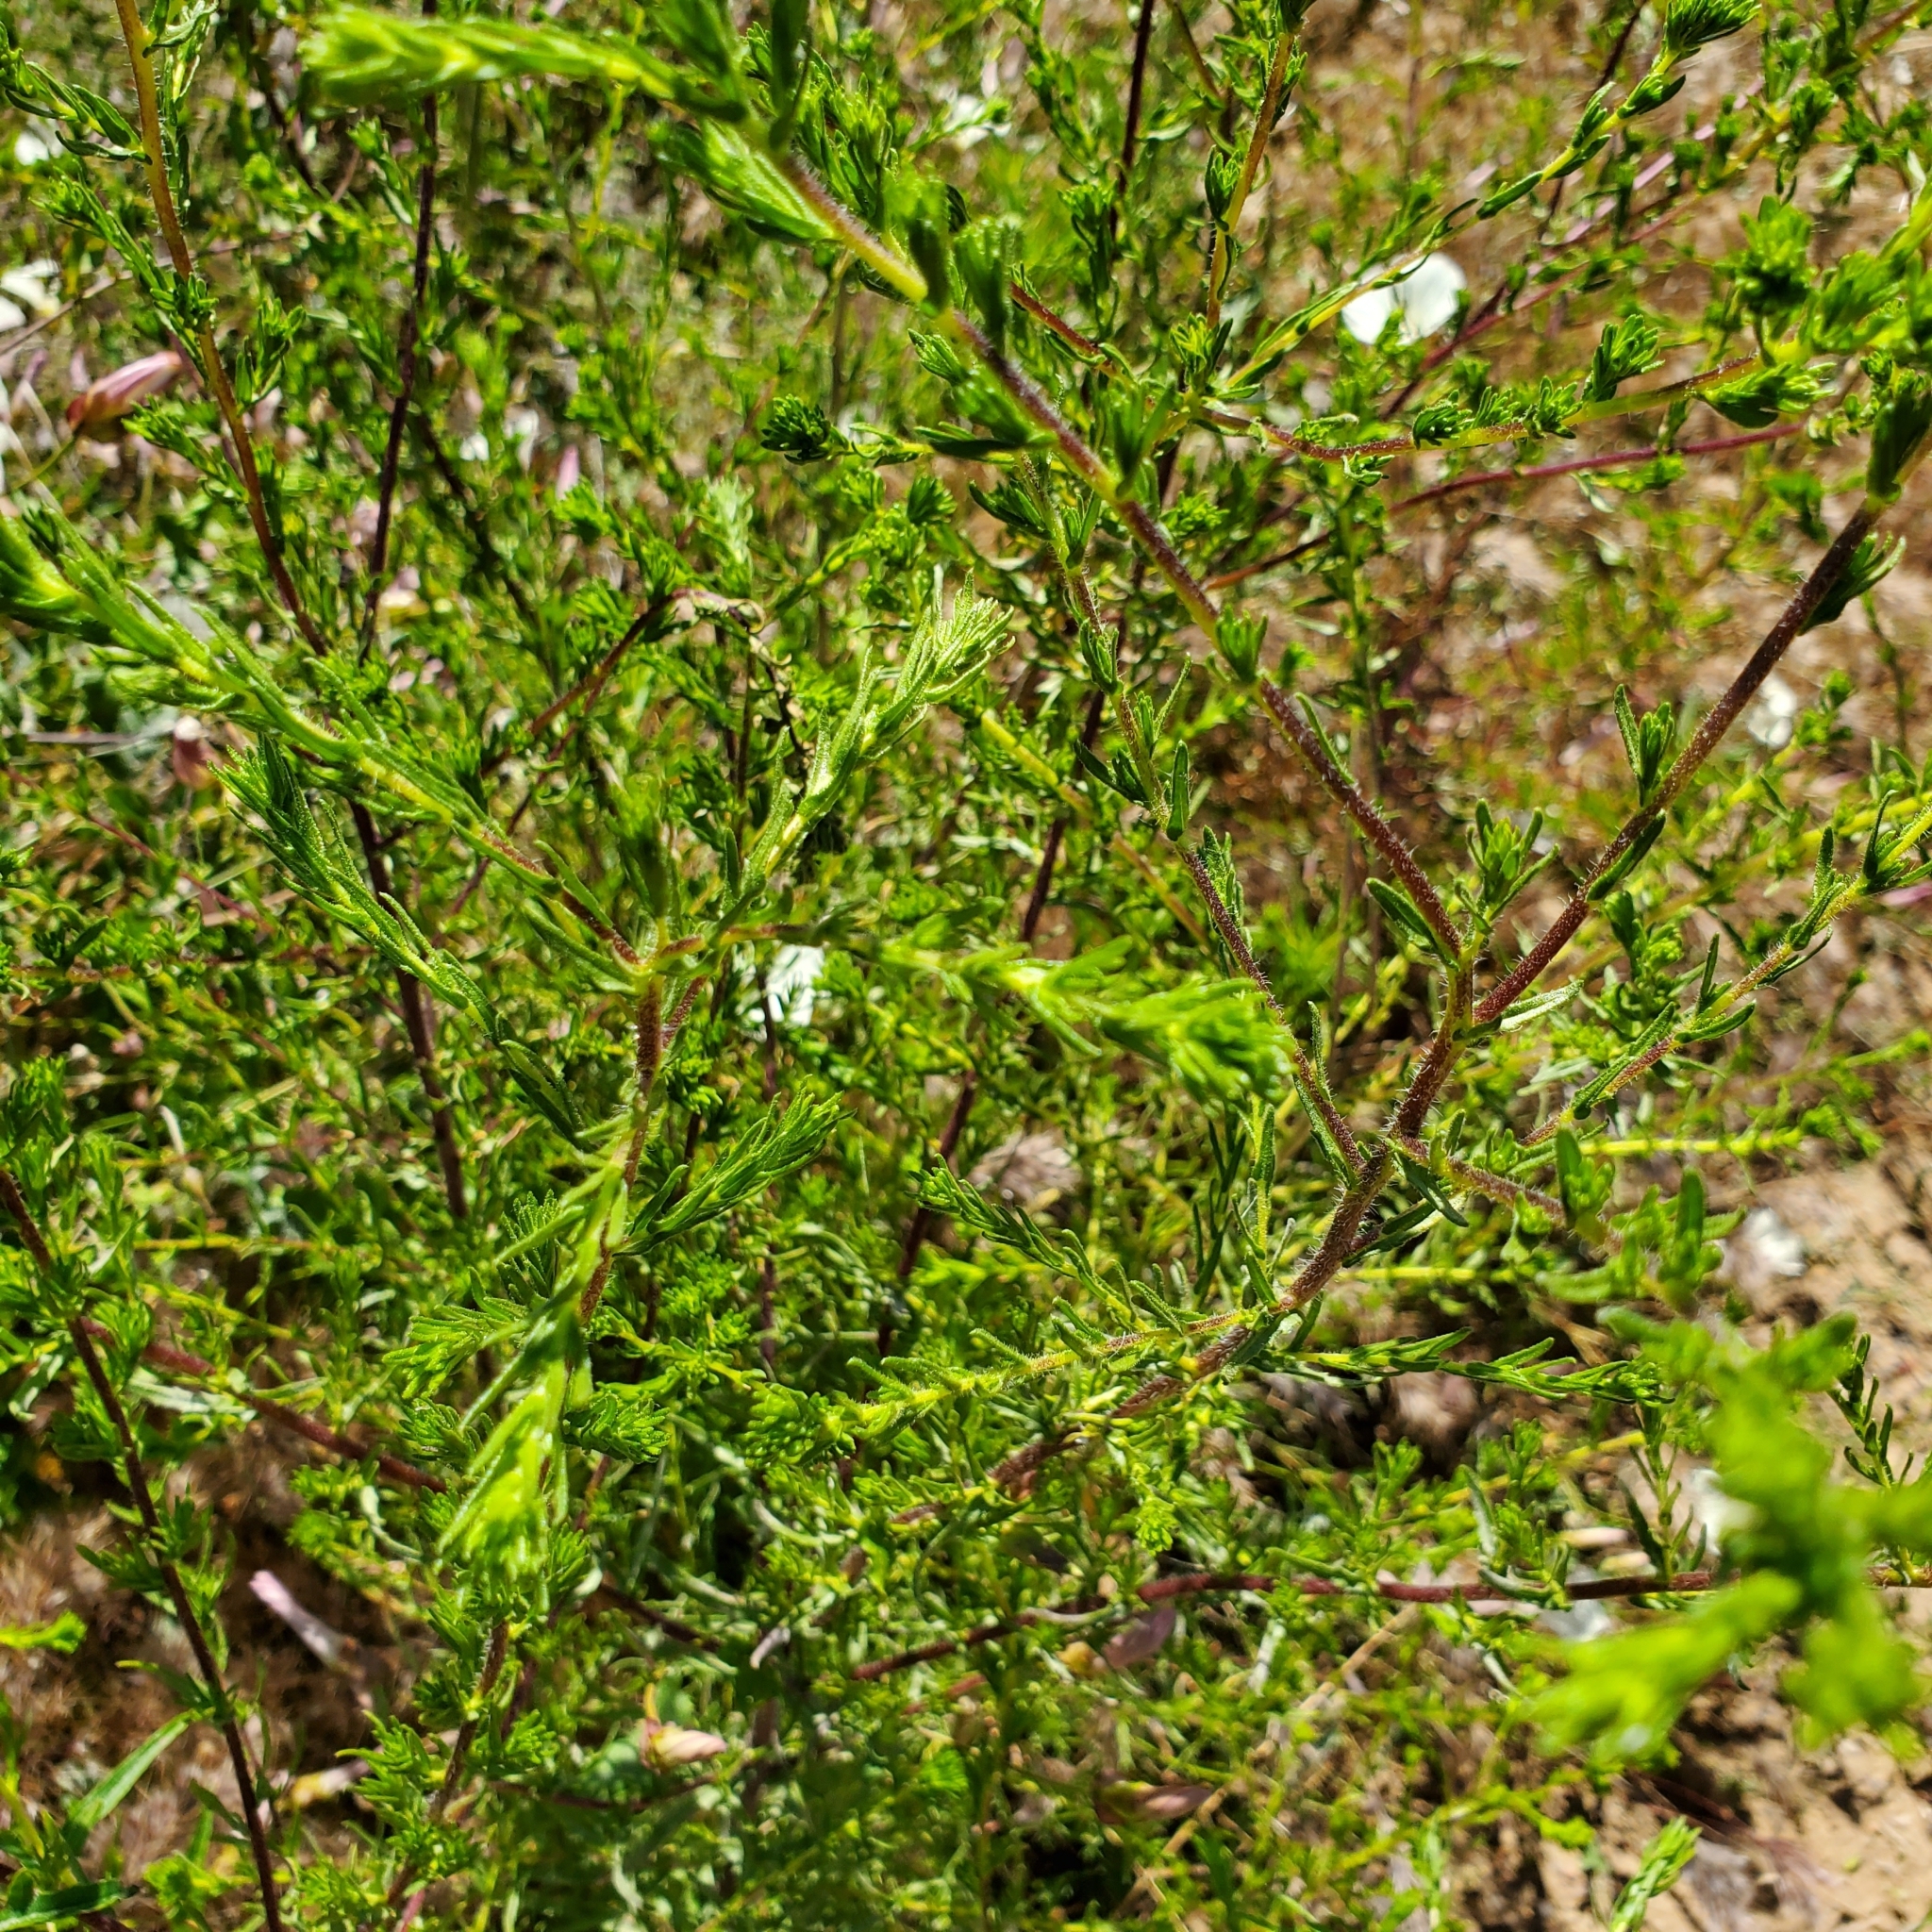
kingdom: Plantae
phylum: Tracheophyta
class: Magnoliopsida
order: Asterales
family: Asteraceae
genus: Deinandra
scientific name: Deinandra fasciculata
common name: Clustered tarweed
